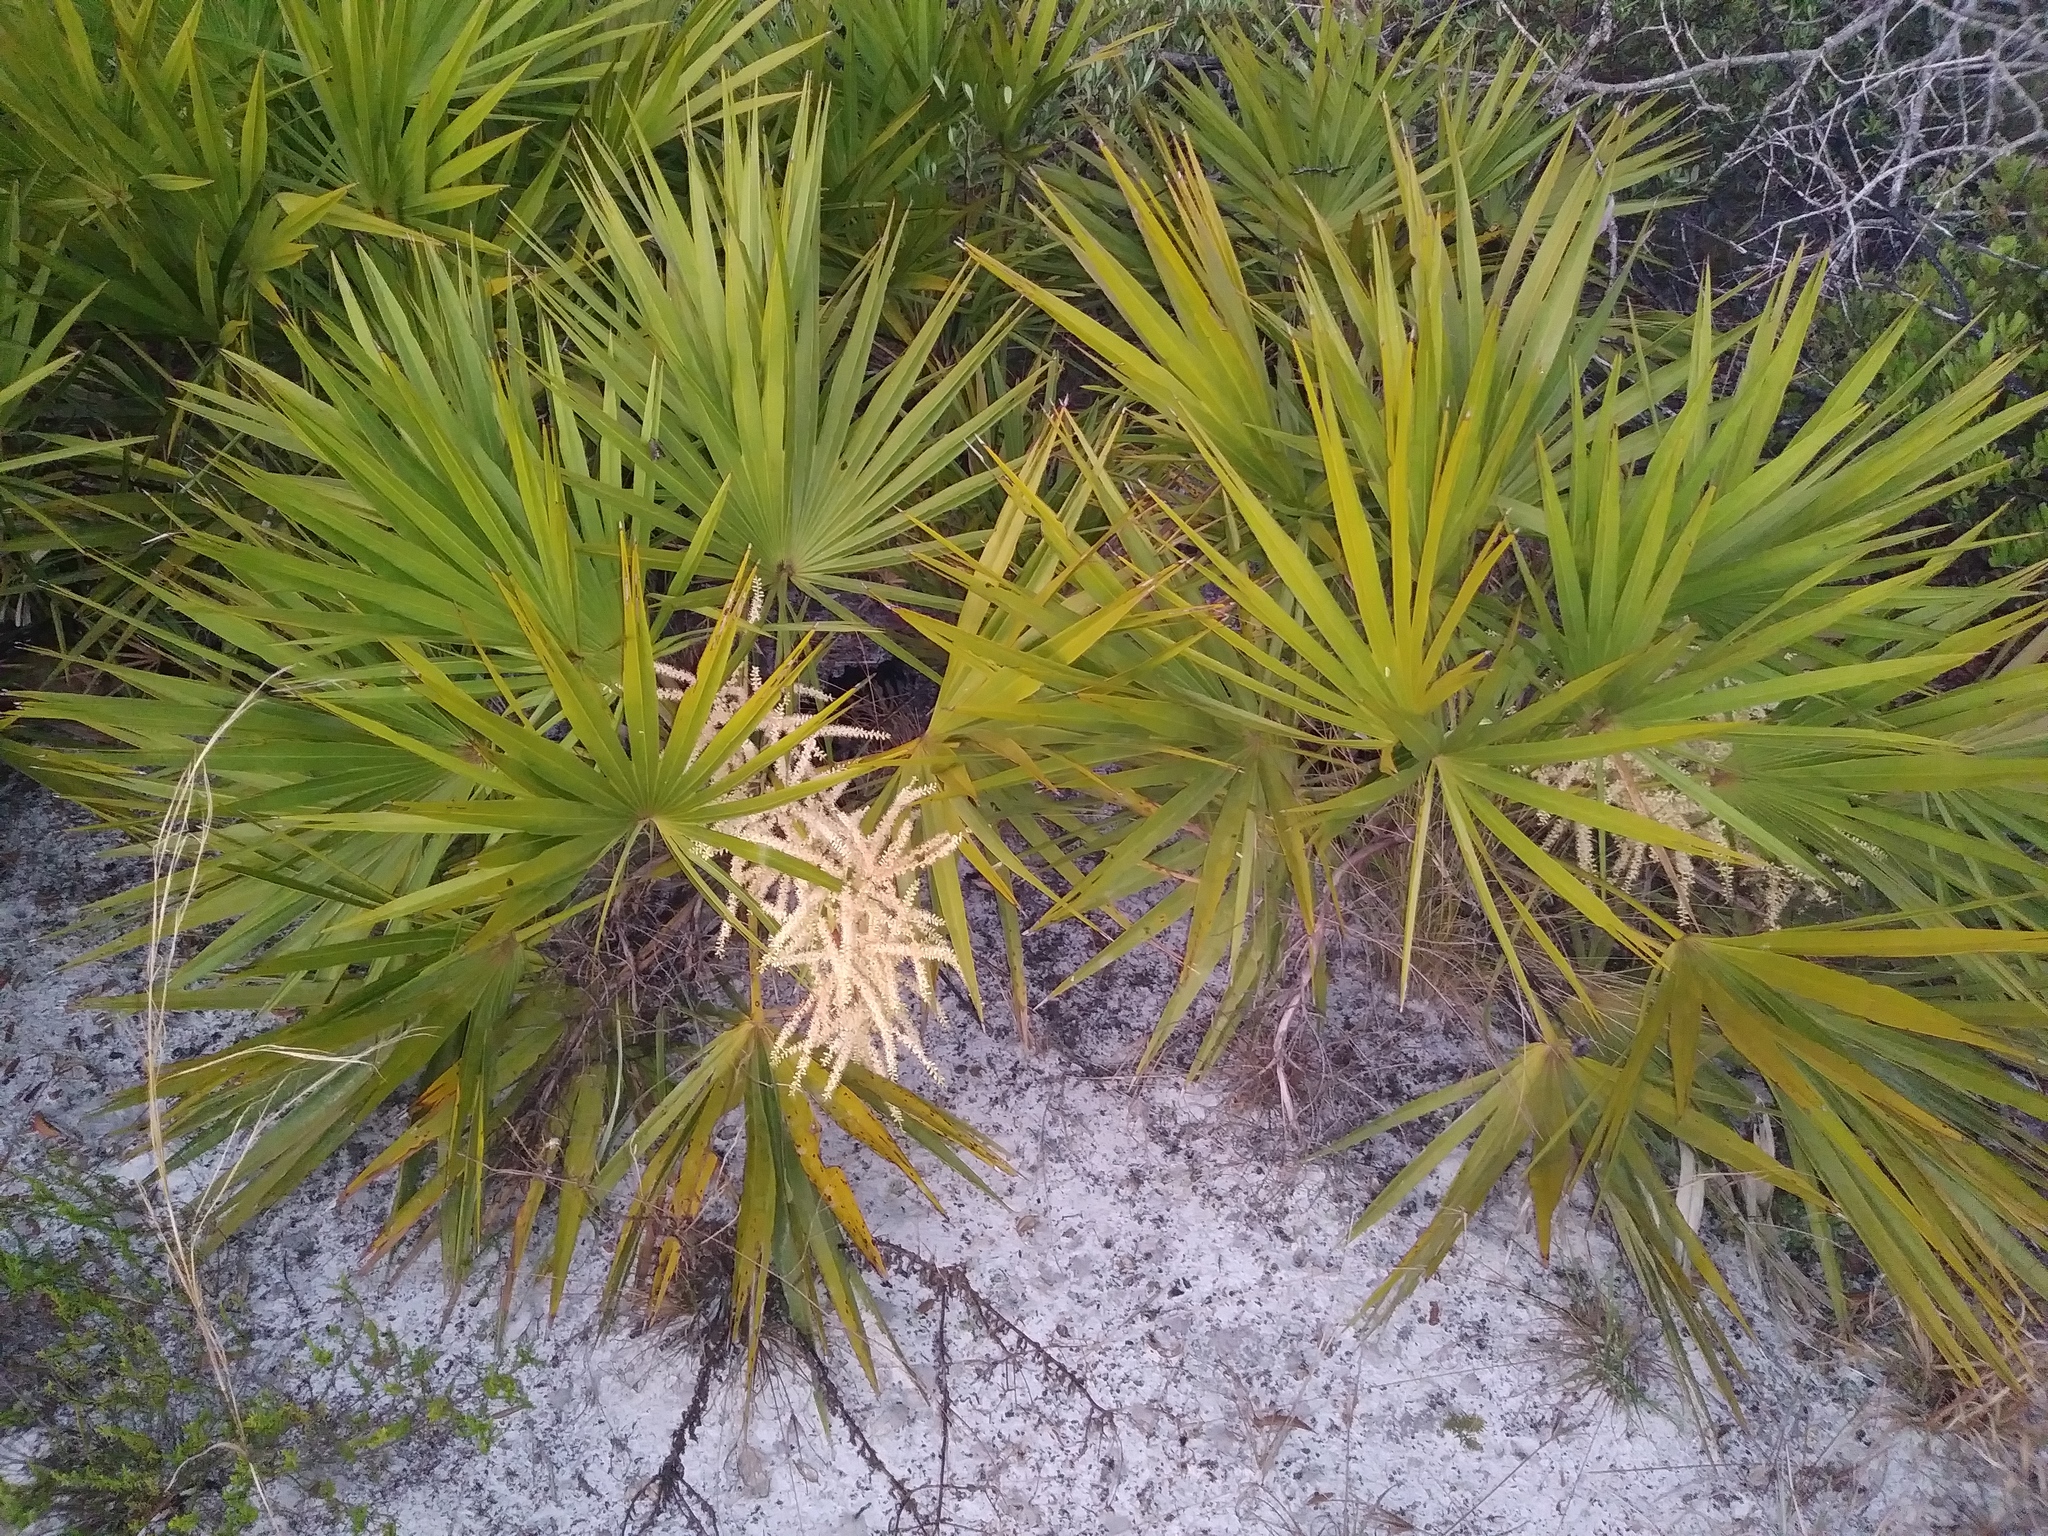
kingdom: Plantae
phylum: Tracheophyta
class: Liliopsida
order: Arecales
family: Arecaceae
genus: Serenoa
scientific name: Serenoa repens
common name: Saw-palmetto
